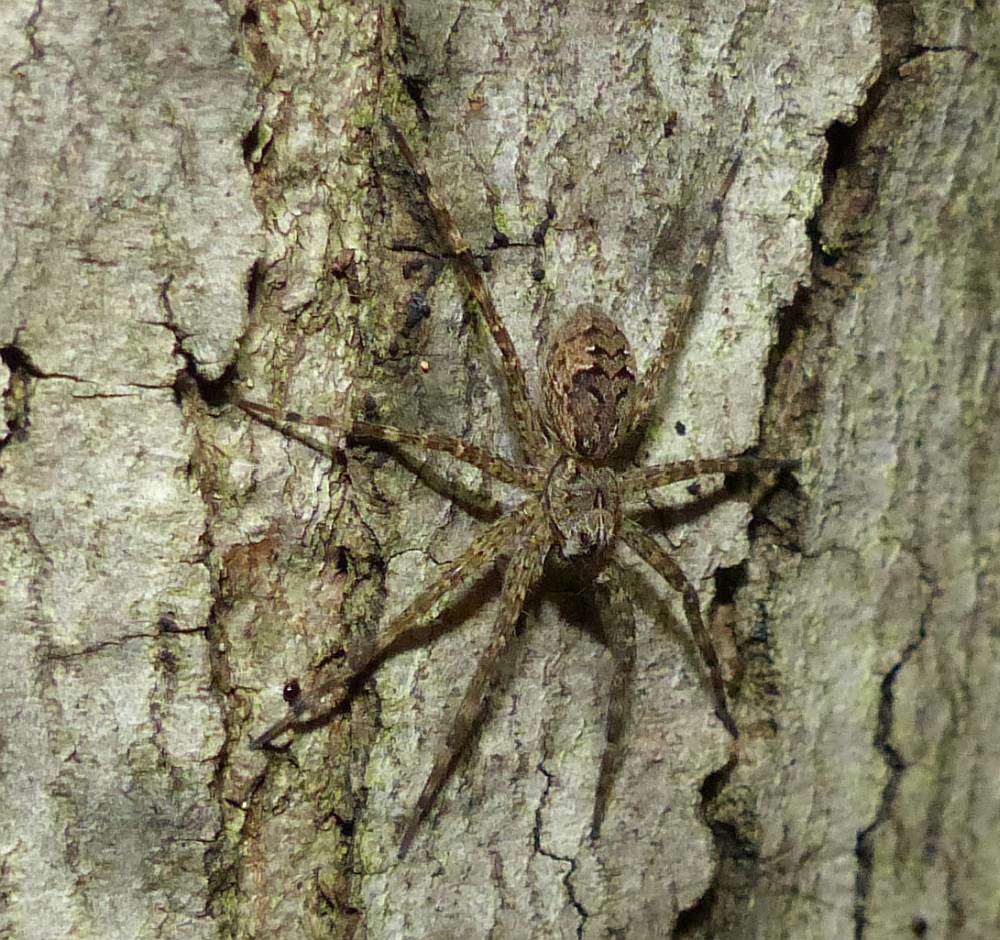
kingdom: Animalia
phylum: Arthropoda
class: Arachnida
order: Araneae
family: Pisauridae
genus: Dolomedes
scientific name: Dolomedes tenebrosus
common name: Dark fishing spider
